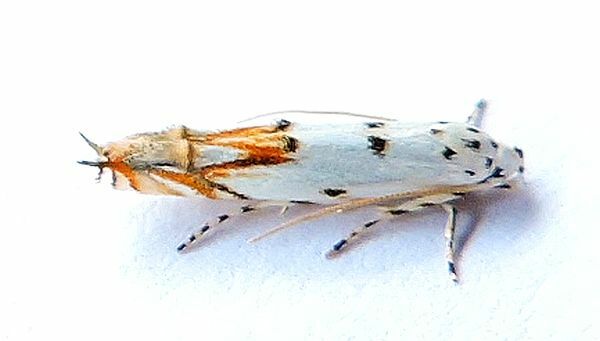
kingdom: Animalia
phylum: Arthropoda
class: Insecta
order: Lepidoptera
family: Momphidae
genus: Mompha
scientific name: Mompha eloisella
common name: Red-streaked mompha moth
